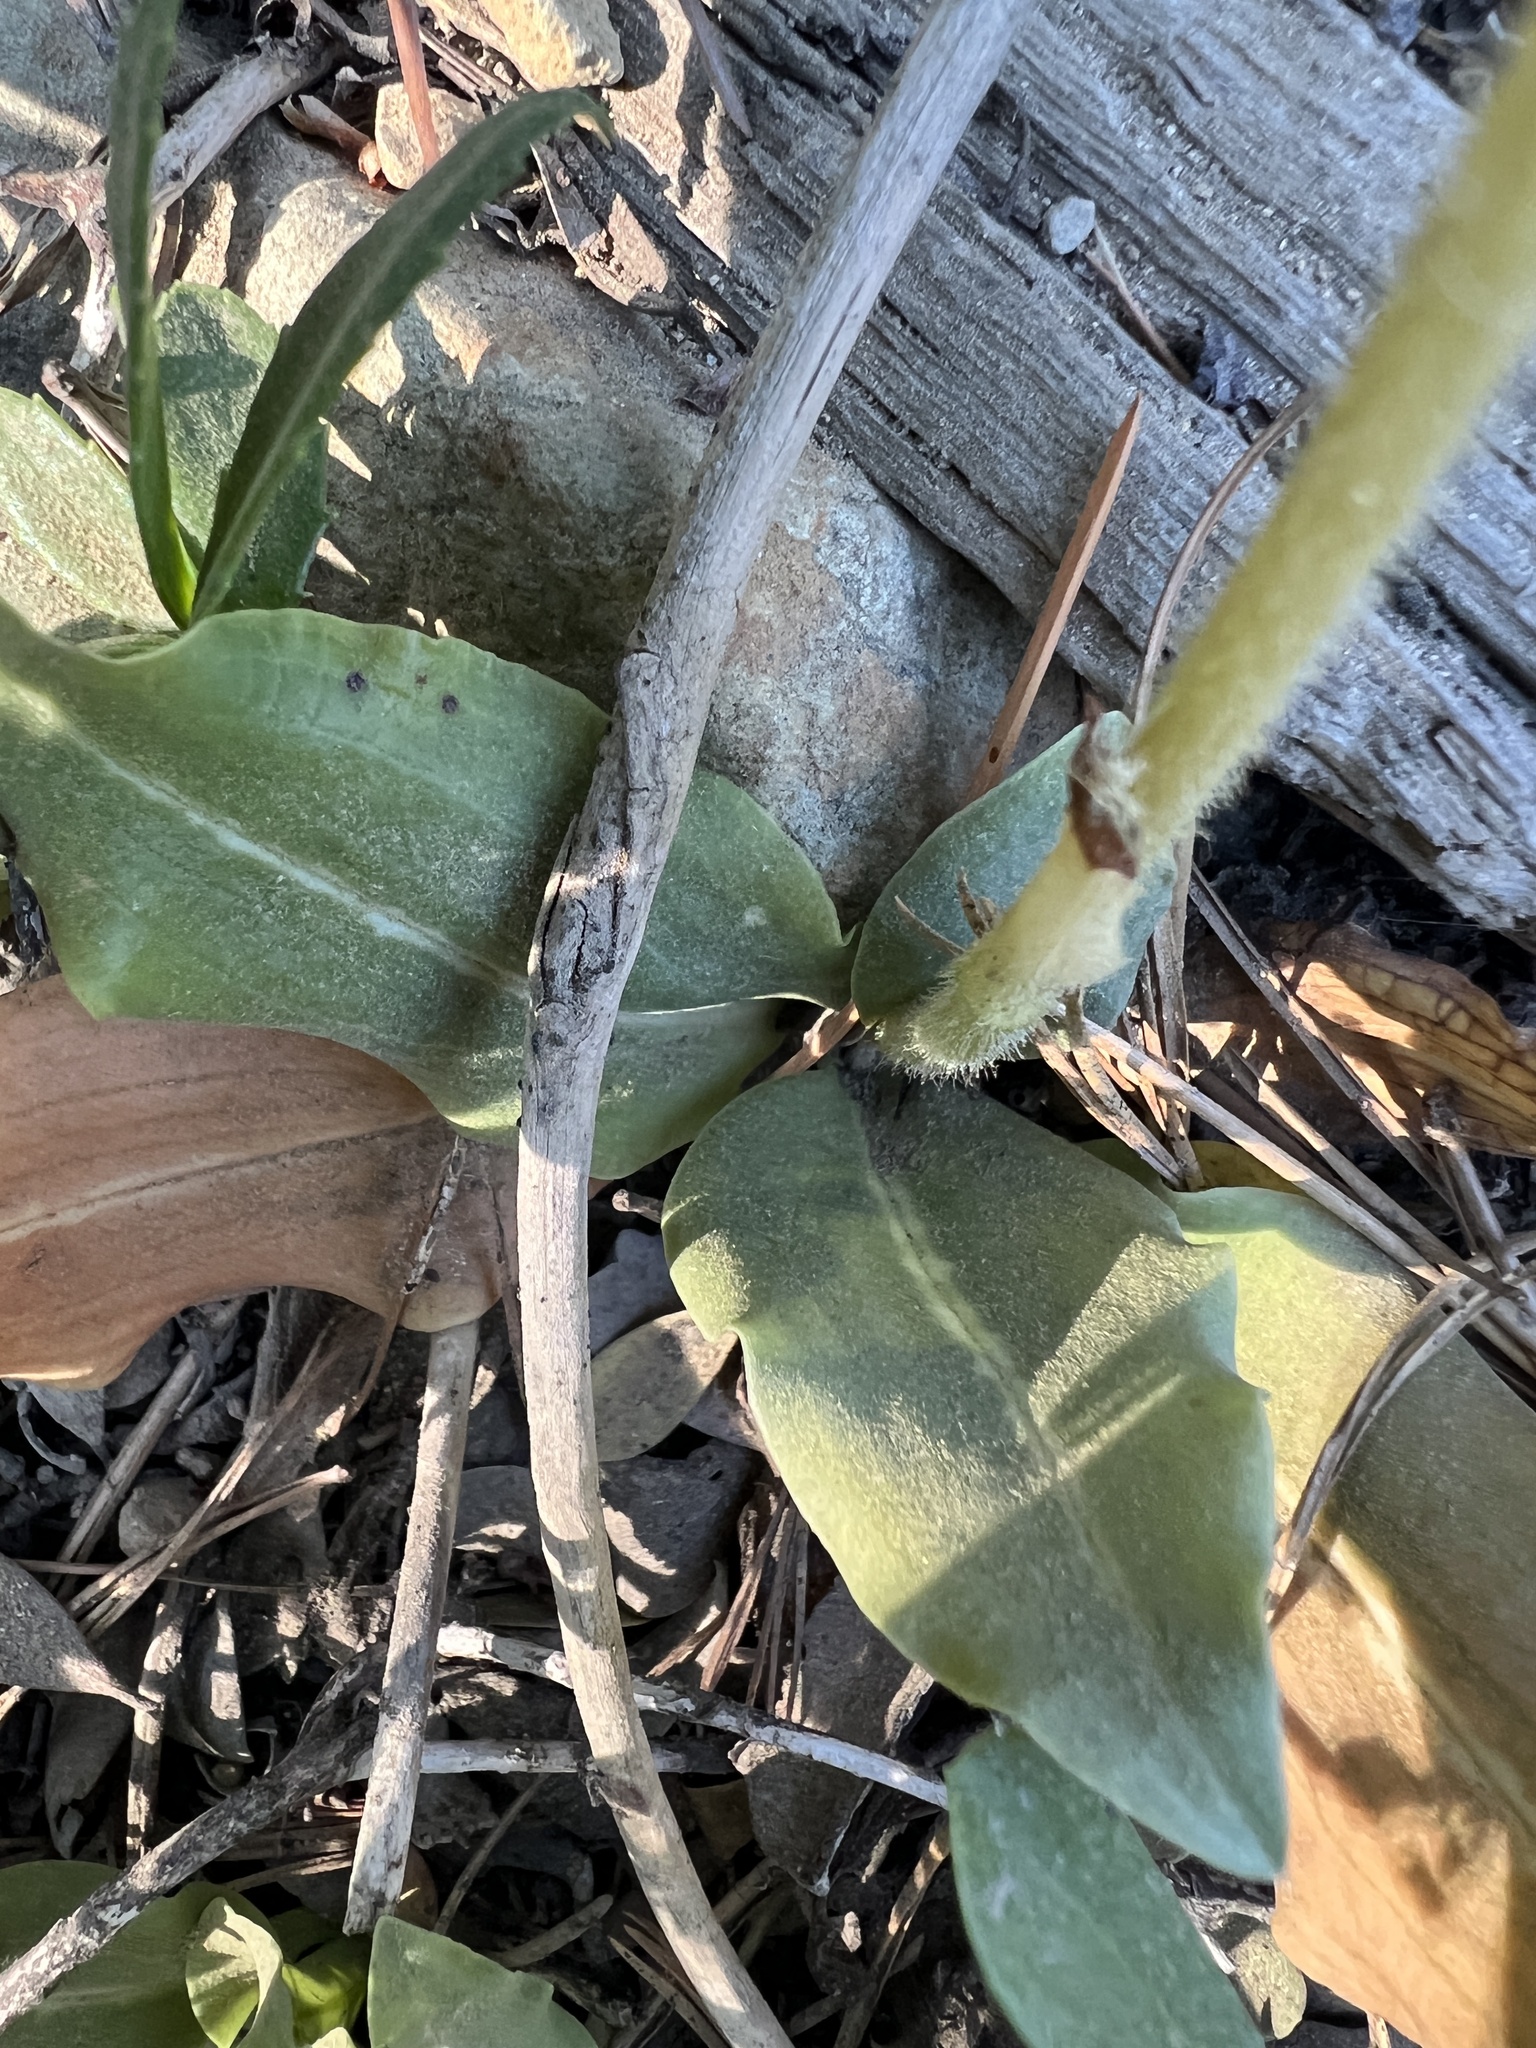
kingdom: Plantae
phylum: Tracheophyta
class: Liliopsida
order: Asparagales
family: Orchidaceae
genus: Goodyera
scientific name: Goodyera oblongifolia
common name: Giant rattlesnake-plantain
